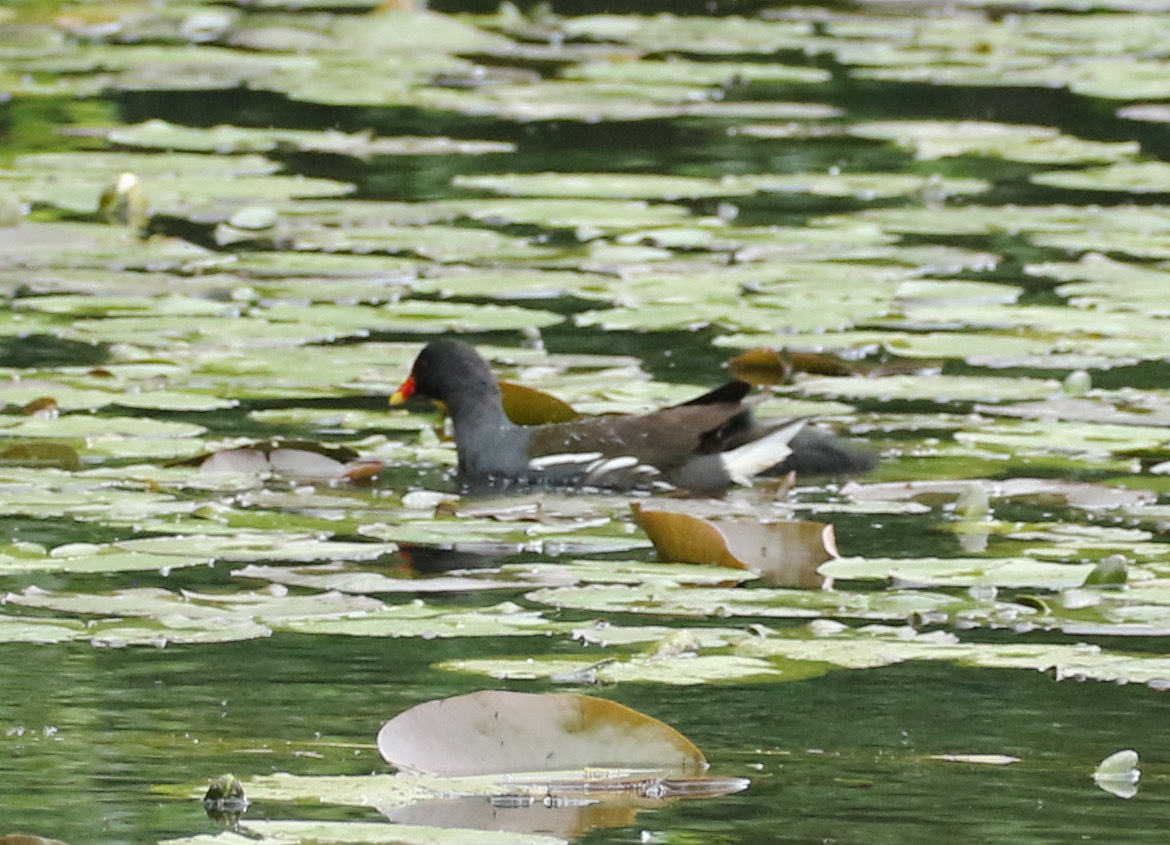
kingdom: Animalia
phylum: Chordata
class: Aves
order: Gruiformes
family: Rallidae
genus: Gallinula
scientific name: Gallinula chloropus
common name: Common moorhen
